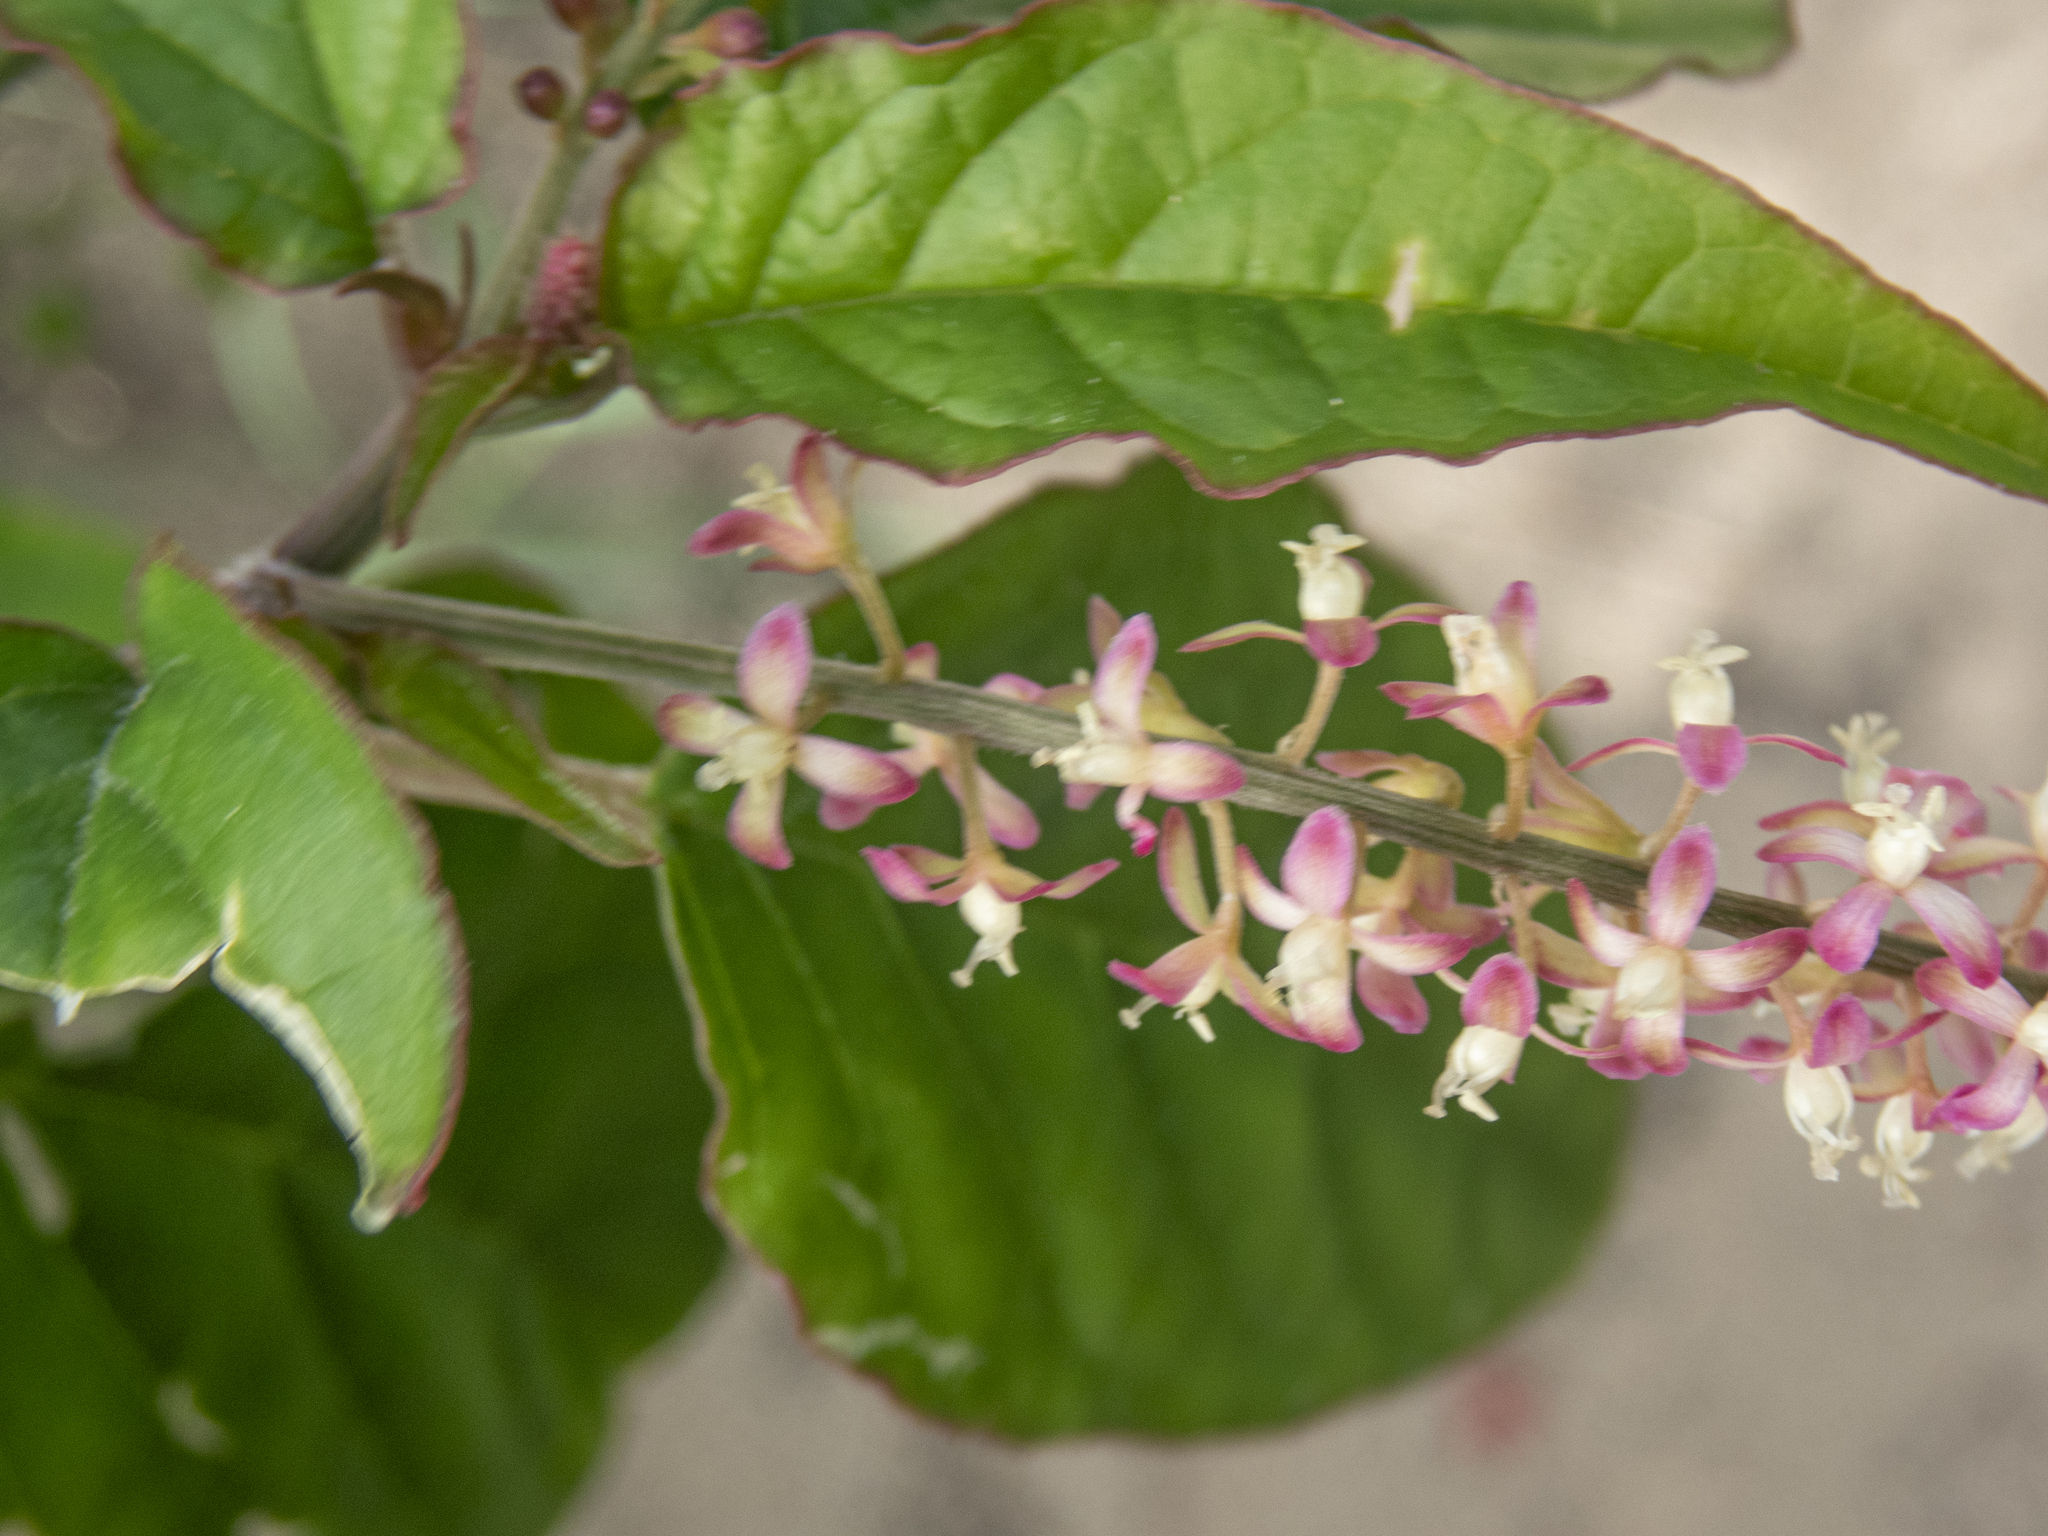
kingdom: Plantae
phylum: Tracheophyta
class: Magnoliopsida
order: Caryophyllales
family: Phytolaccaceae
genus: Rivina
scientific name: Rivina humilis
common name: Rougeplant
